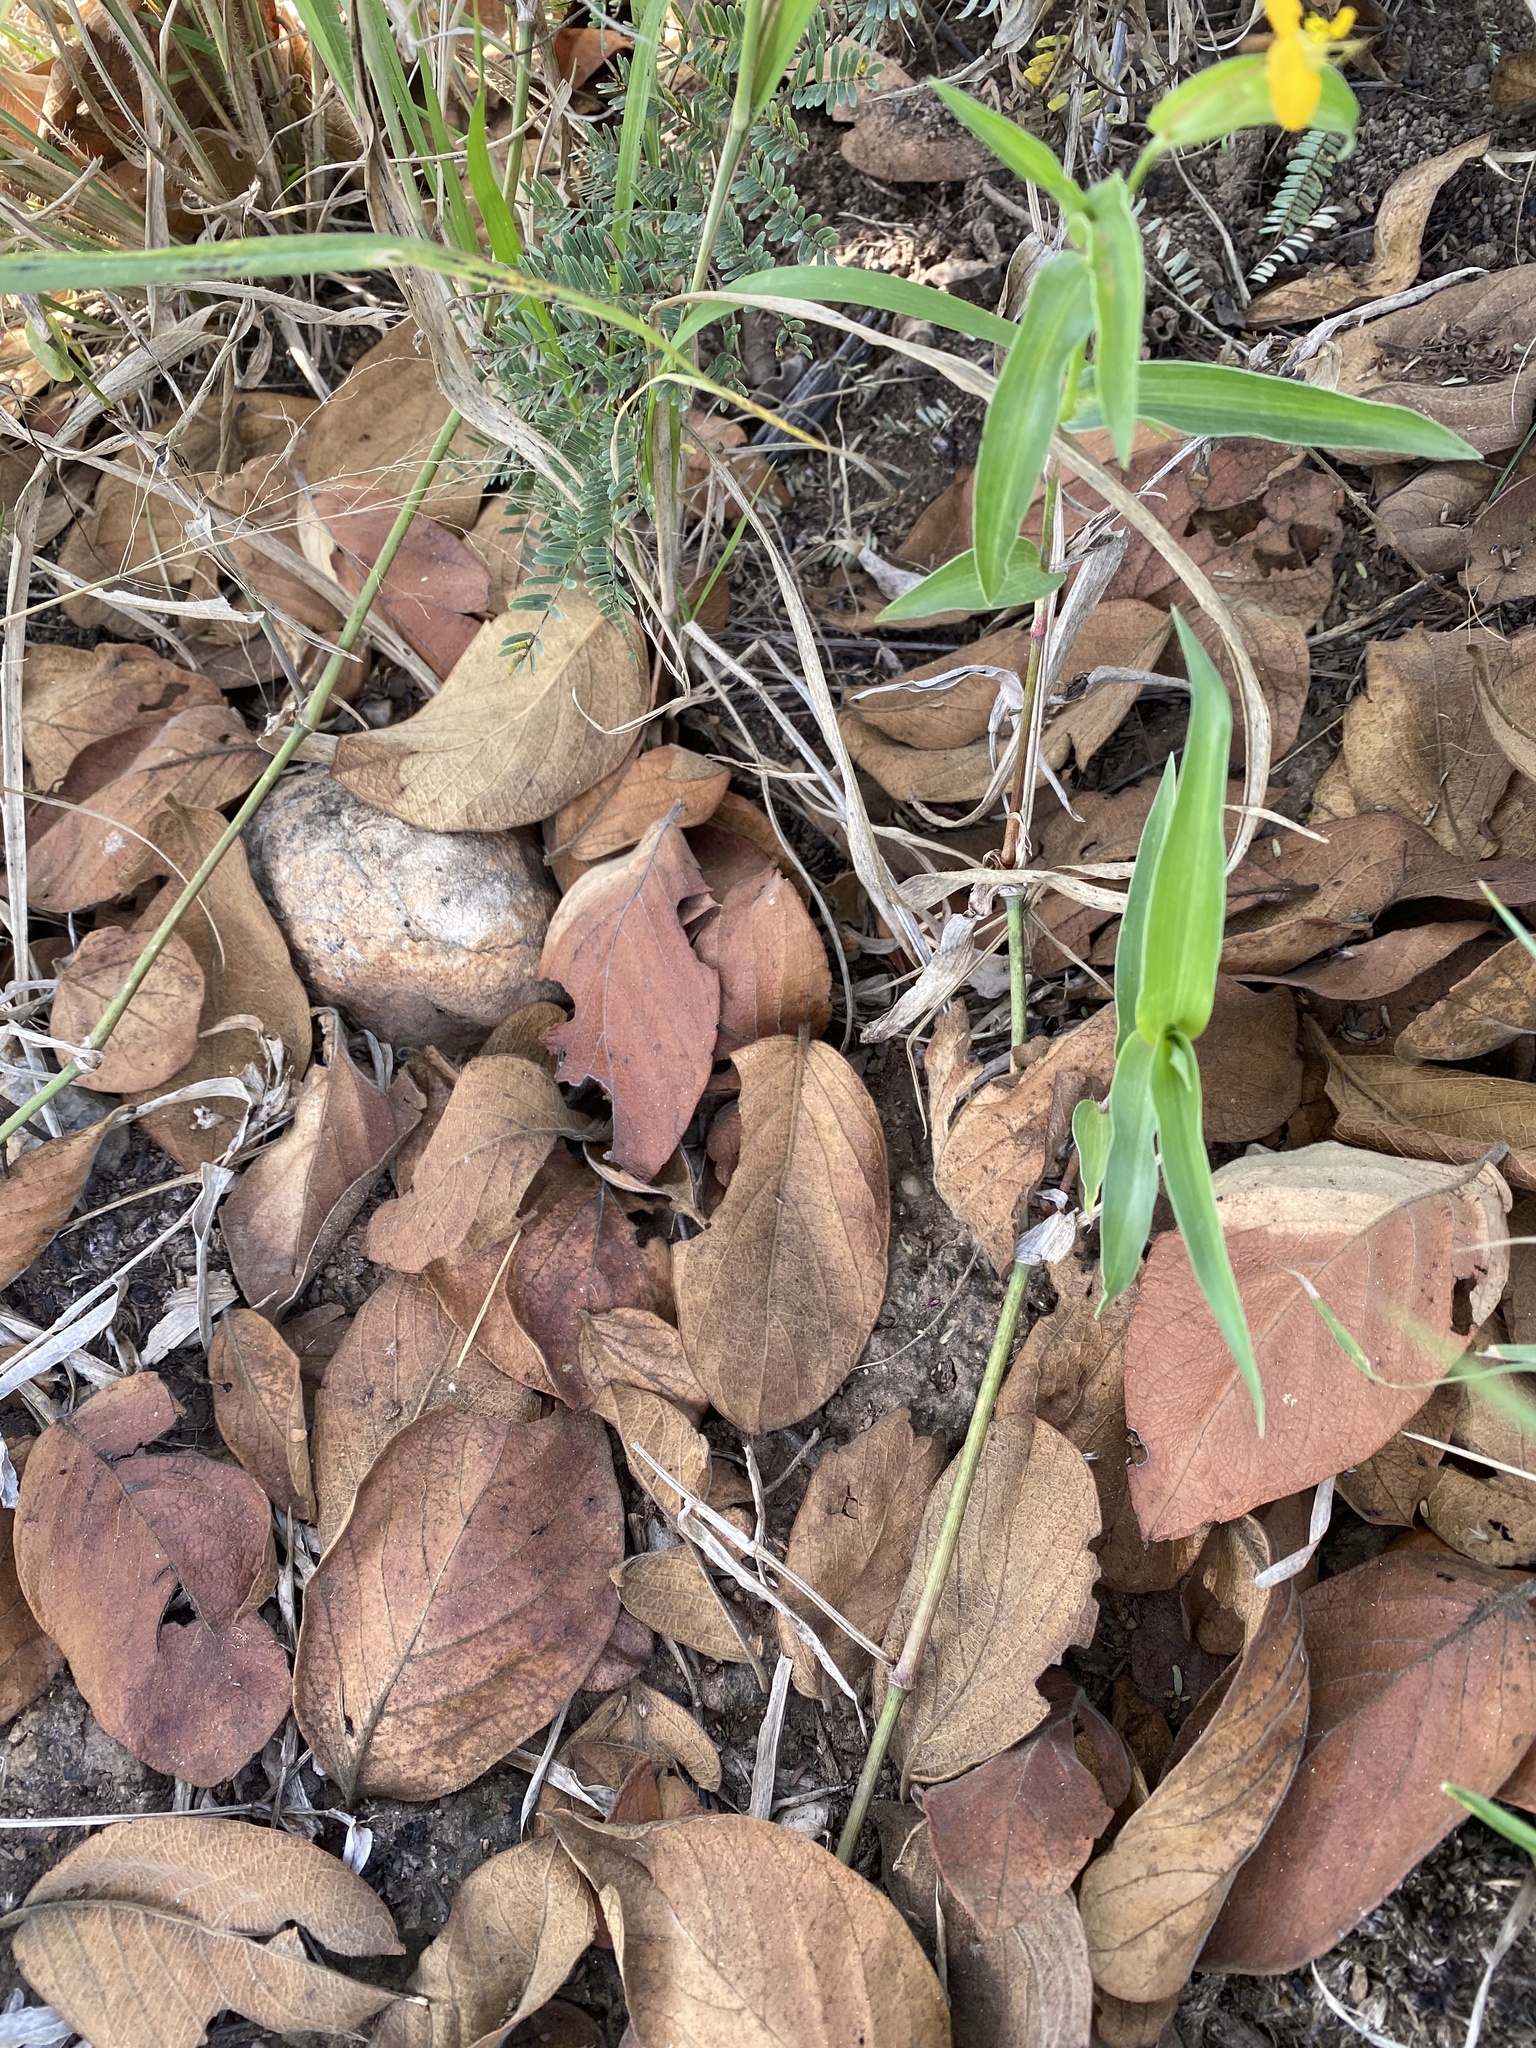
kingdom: Plantae
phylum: Tracheophyta
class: Liliopsida
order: Commelinales
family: Commelinaceae
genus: Commelina
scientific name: Commelina africana
